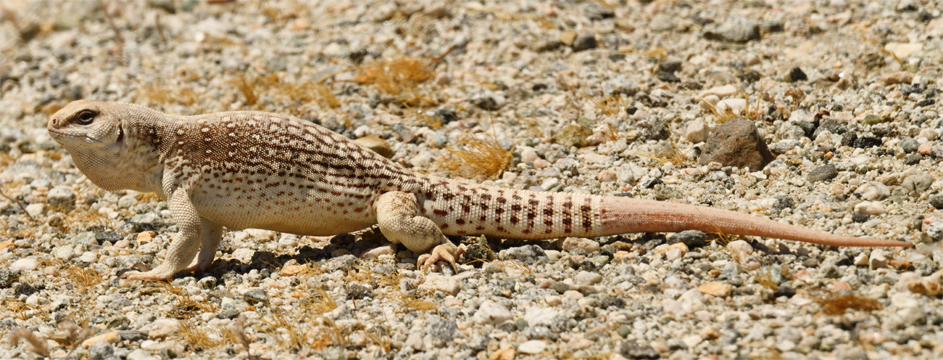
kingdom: Animalia
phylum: Chordata
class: Squamata
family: Iguanidae
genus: Dipsosaurus
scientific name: Dipsosaurus dorsalis
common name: Desert iguana
